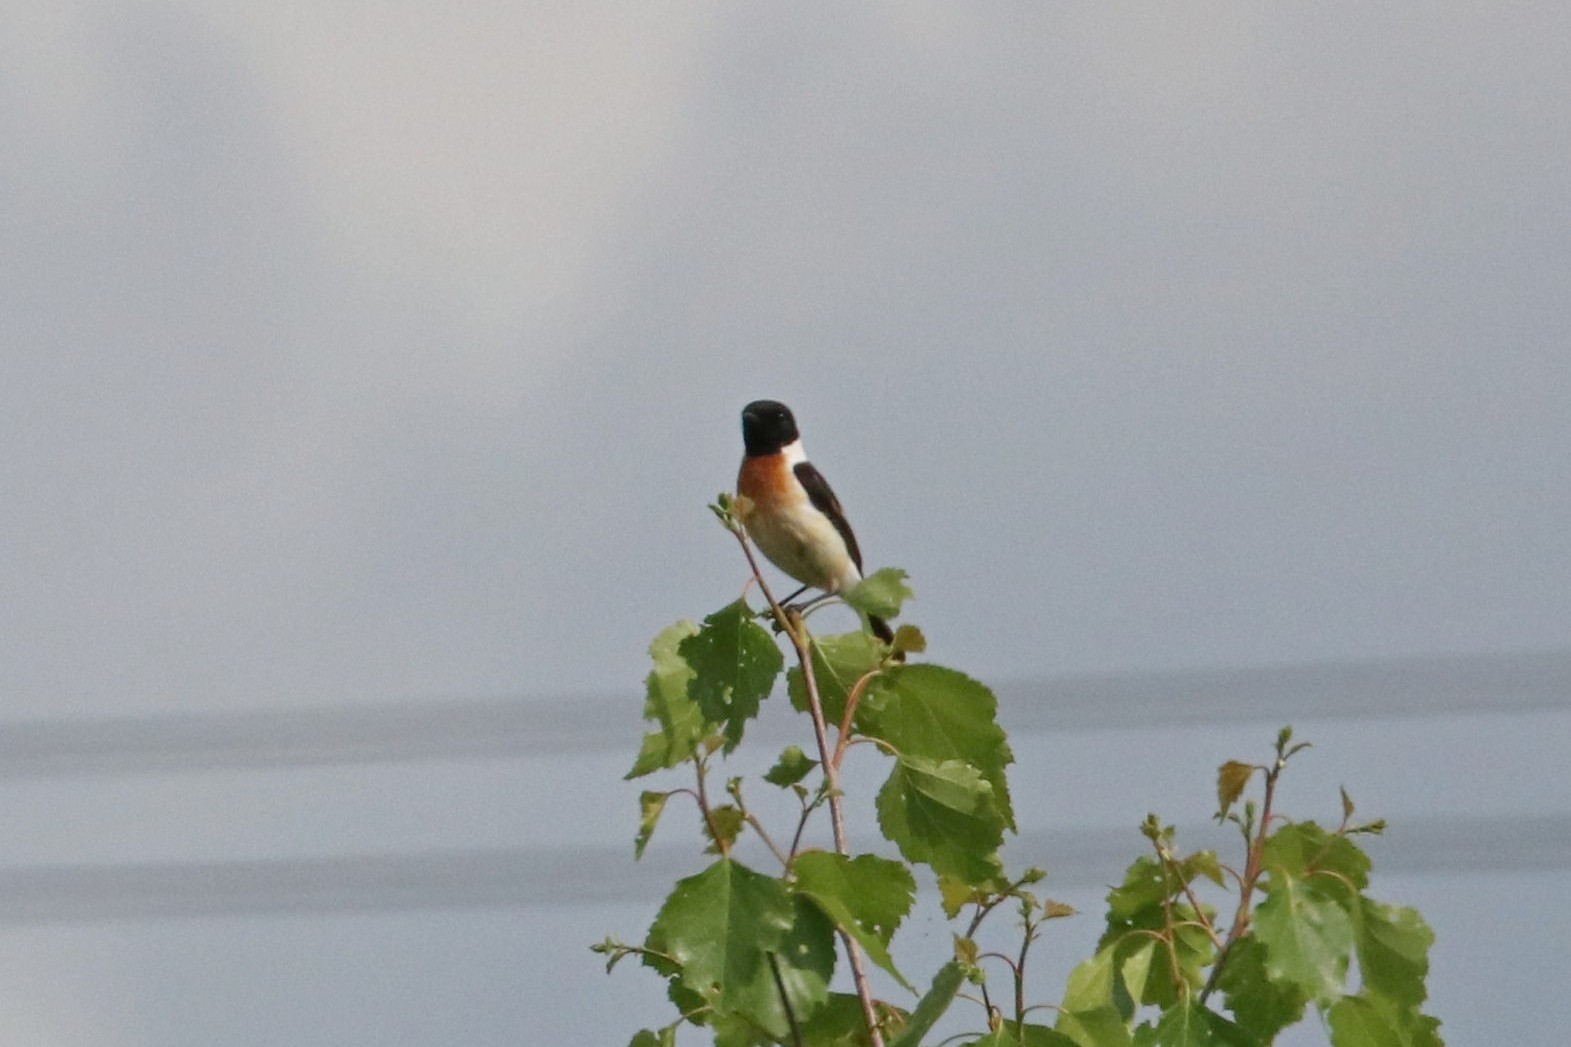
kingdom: Animalia
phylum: Chordata
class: Aves
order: Passeriformes
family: Muscicapidae
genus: Saxicola
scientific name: Saxicola maurus
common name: Siberian stonechat
